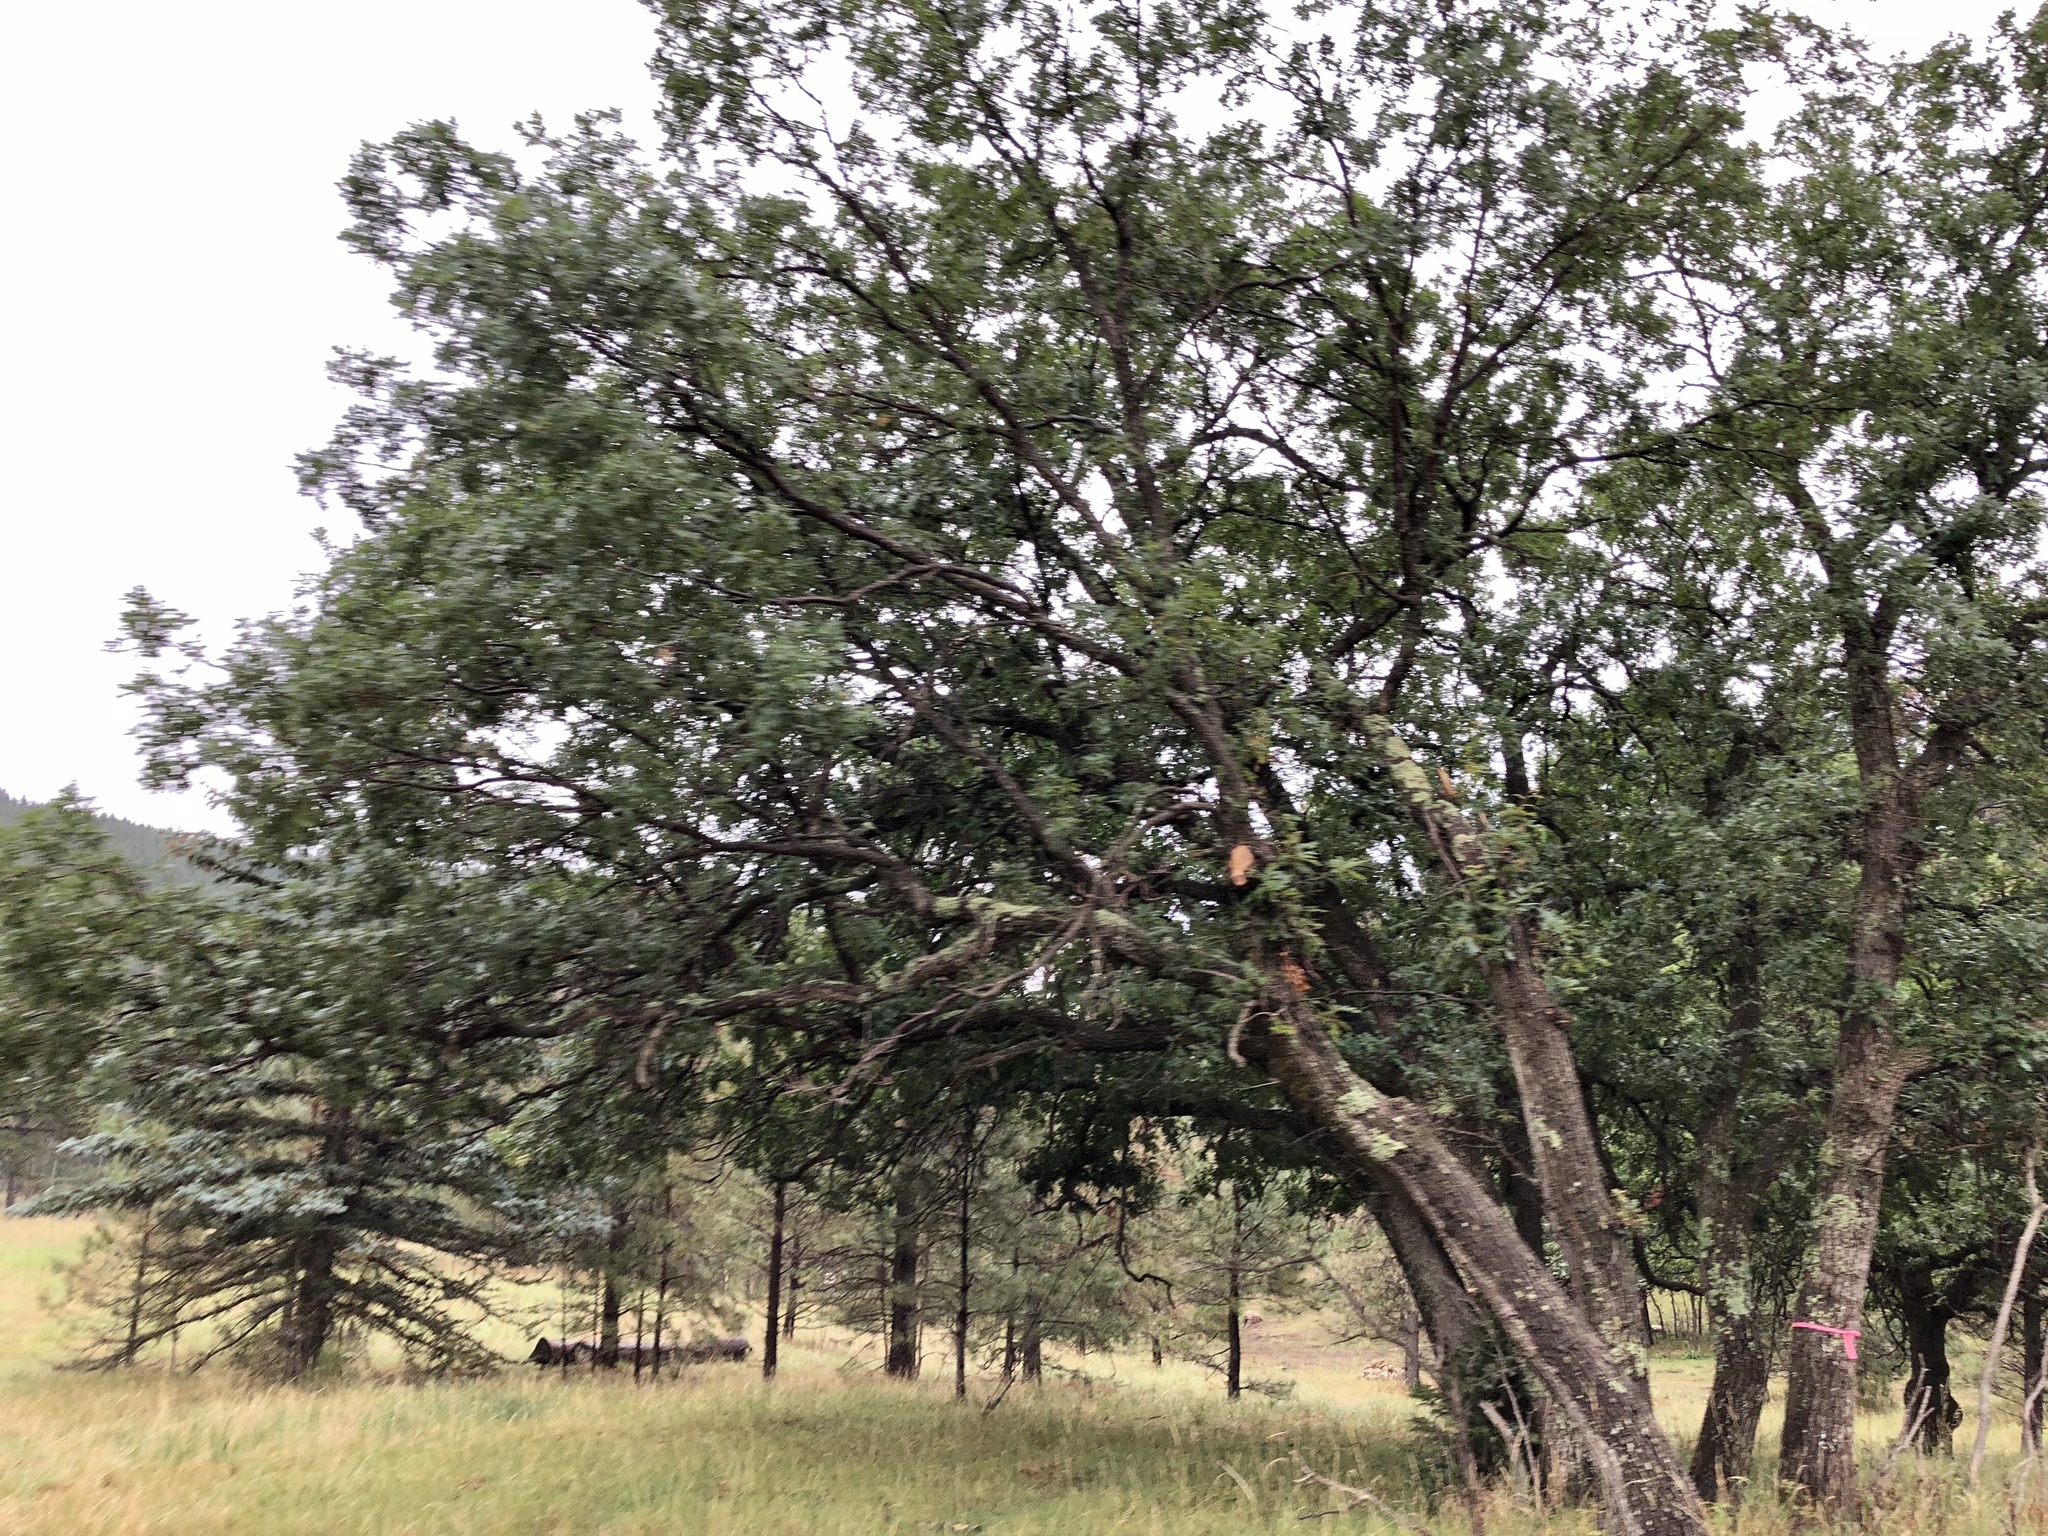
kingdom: Plantae
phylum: Tracheophyta
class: Magnoliopsida
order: Fagales
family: Fagaceae
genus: Quercus
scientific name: Quercus gambelii
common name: Gambel oak
